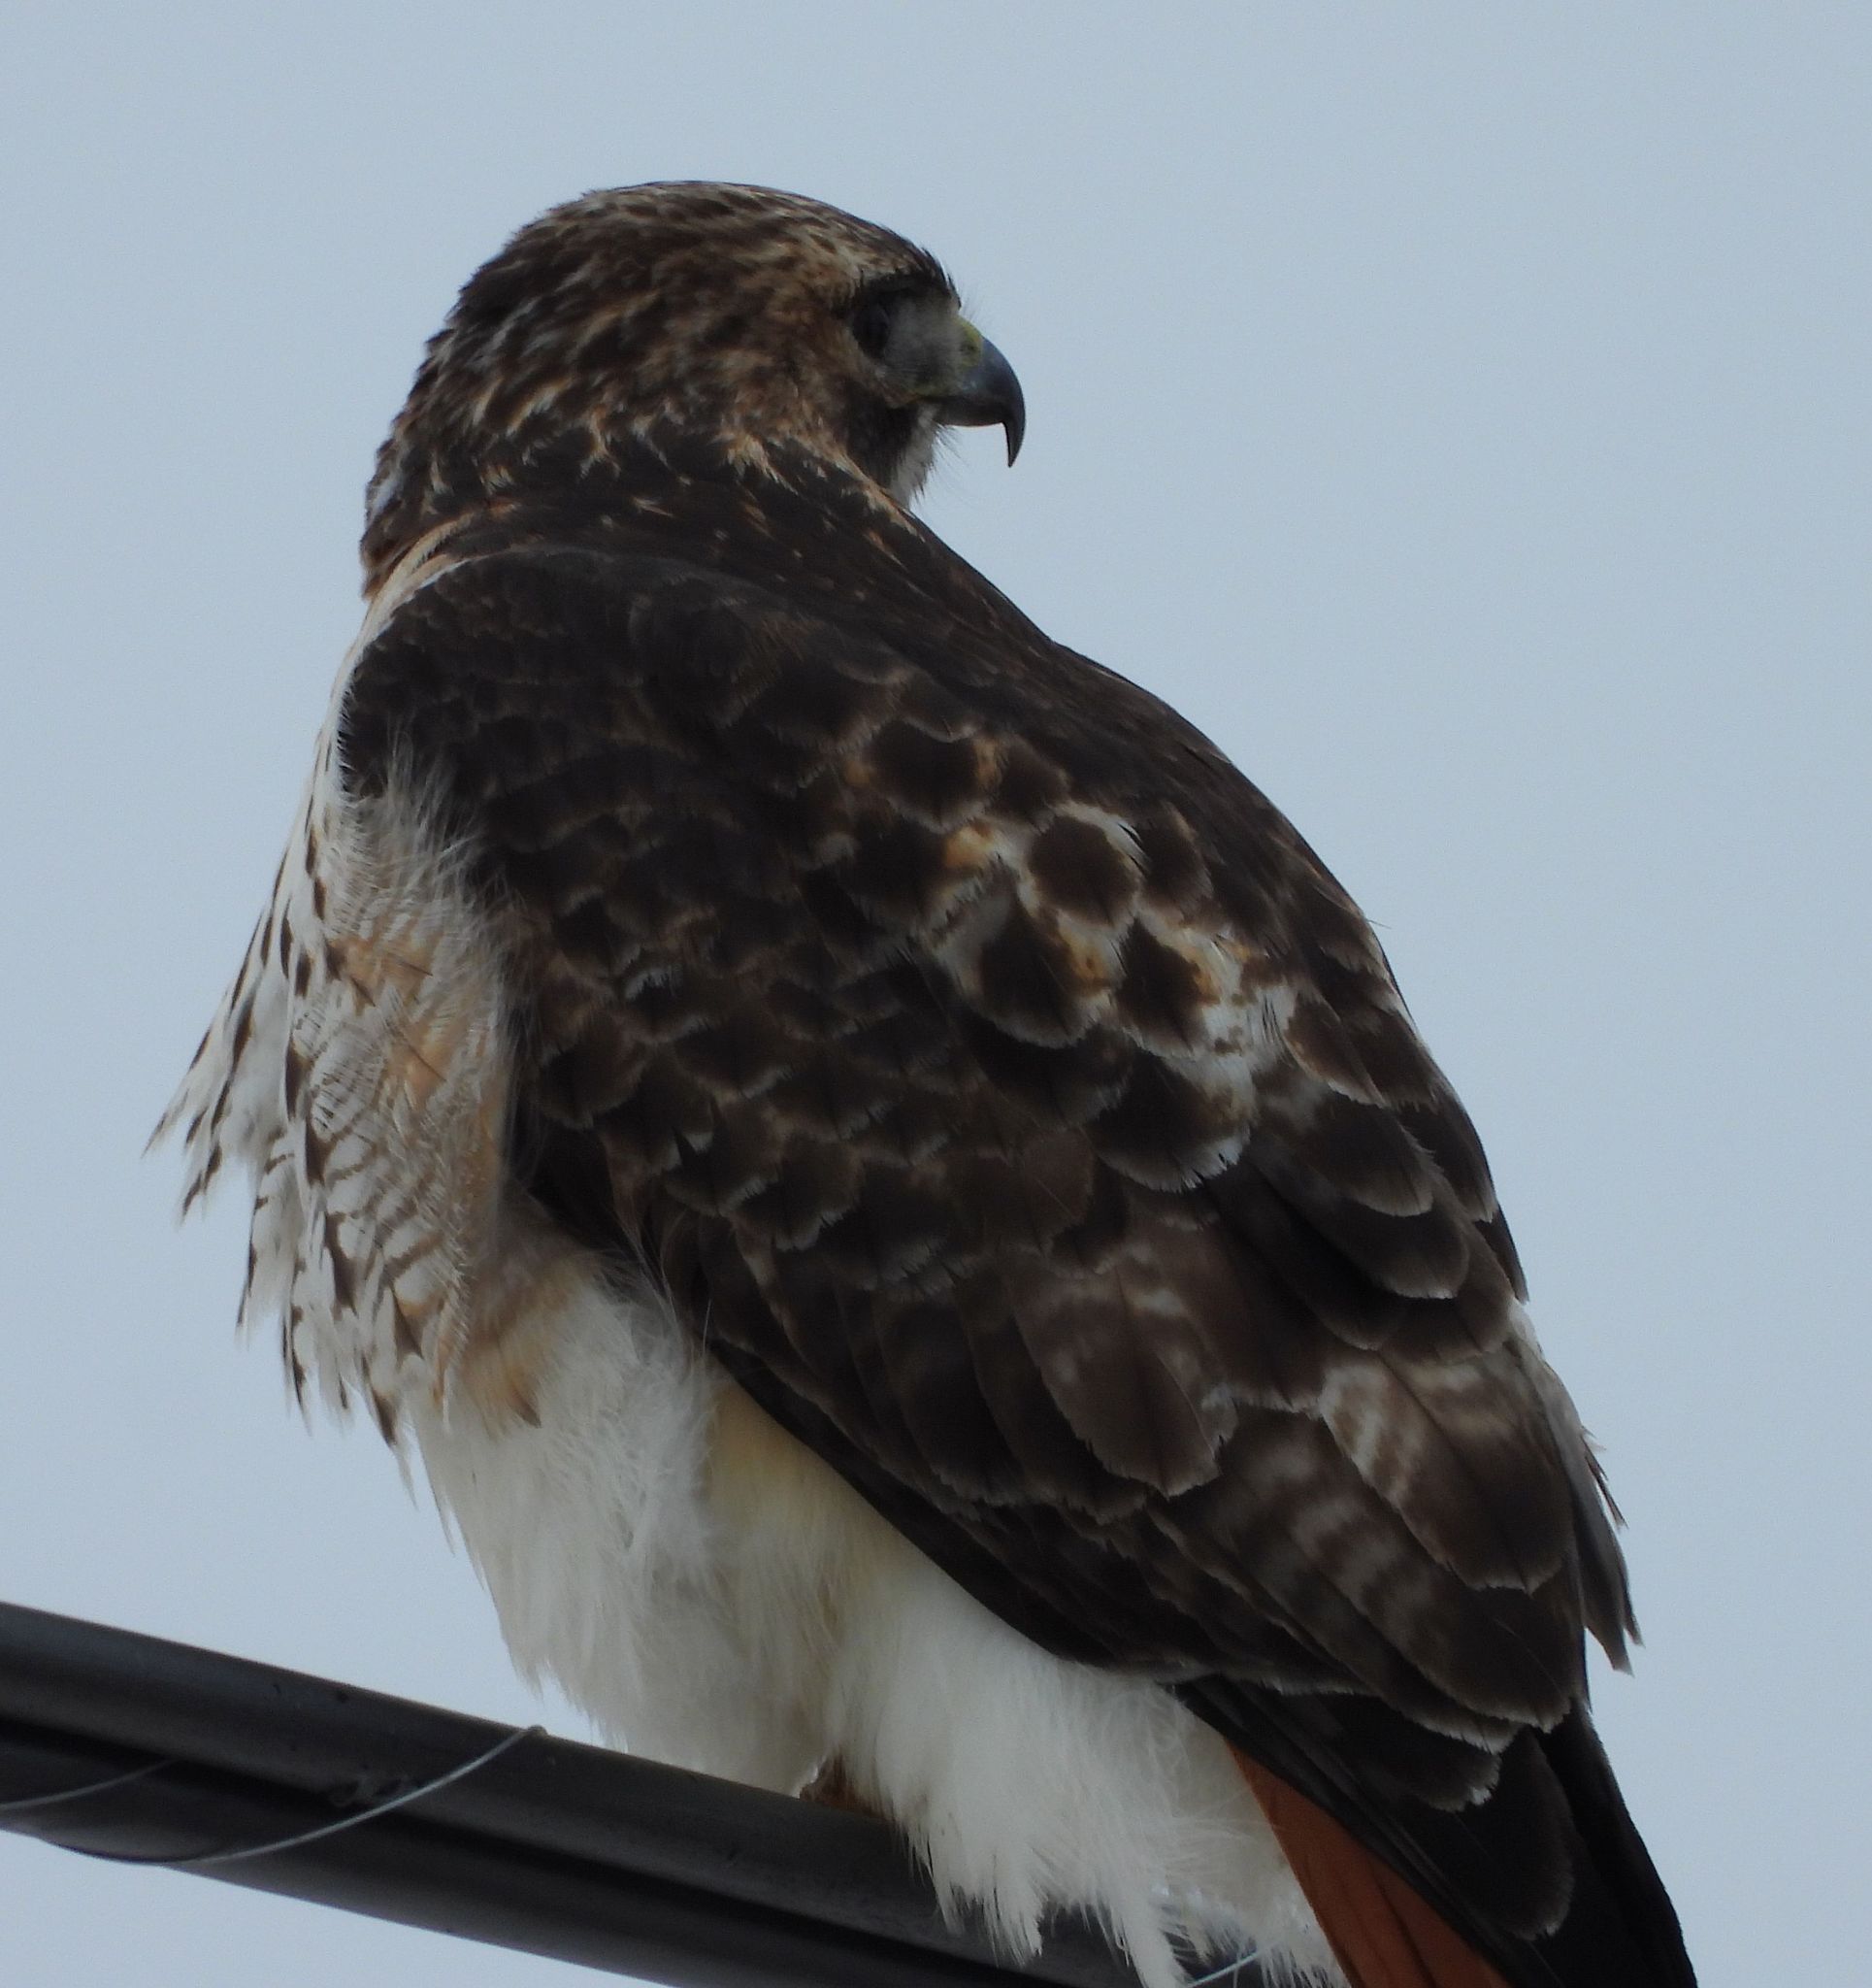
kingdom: Animalia
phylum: Chordata
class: Aves
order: Accipitriformes
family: Accipitridae
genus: Buteo
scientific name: Buteo jamaicensis
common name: Red-tailed hawk
